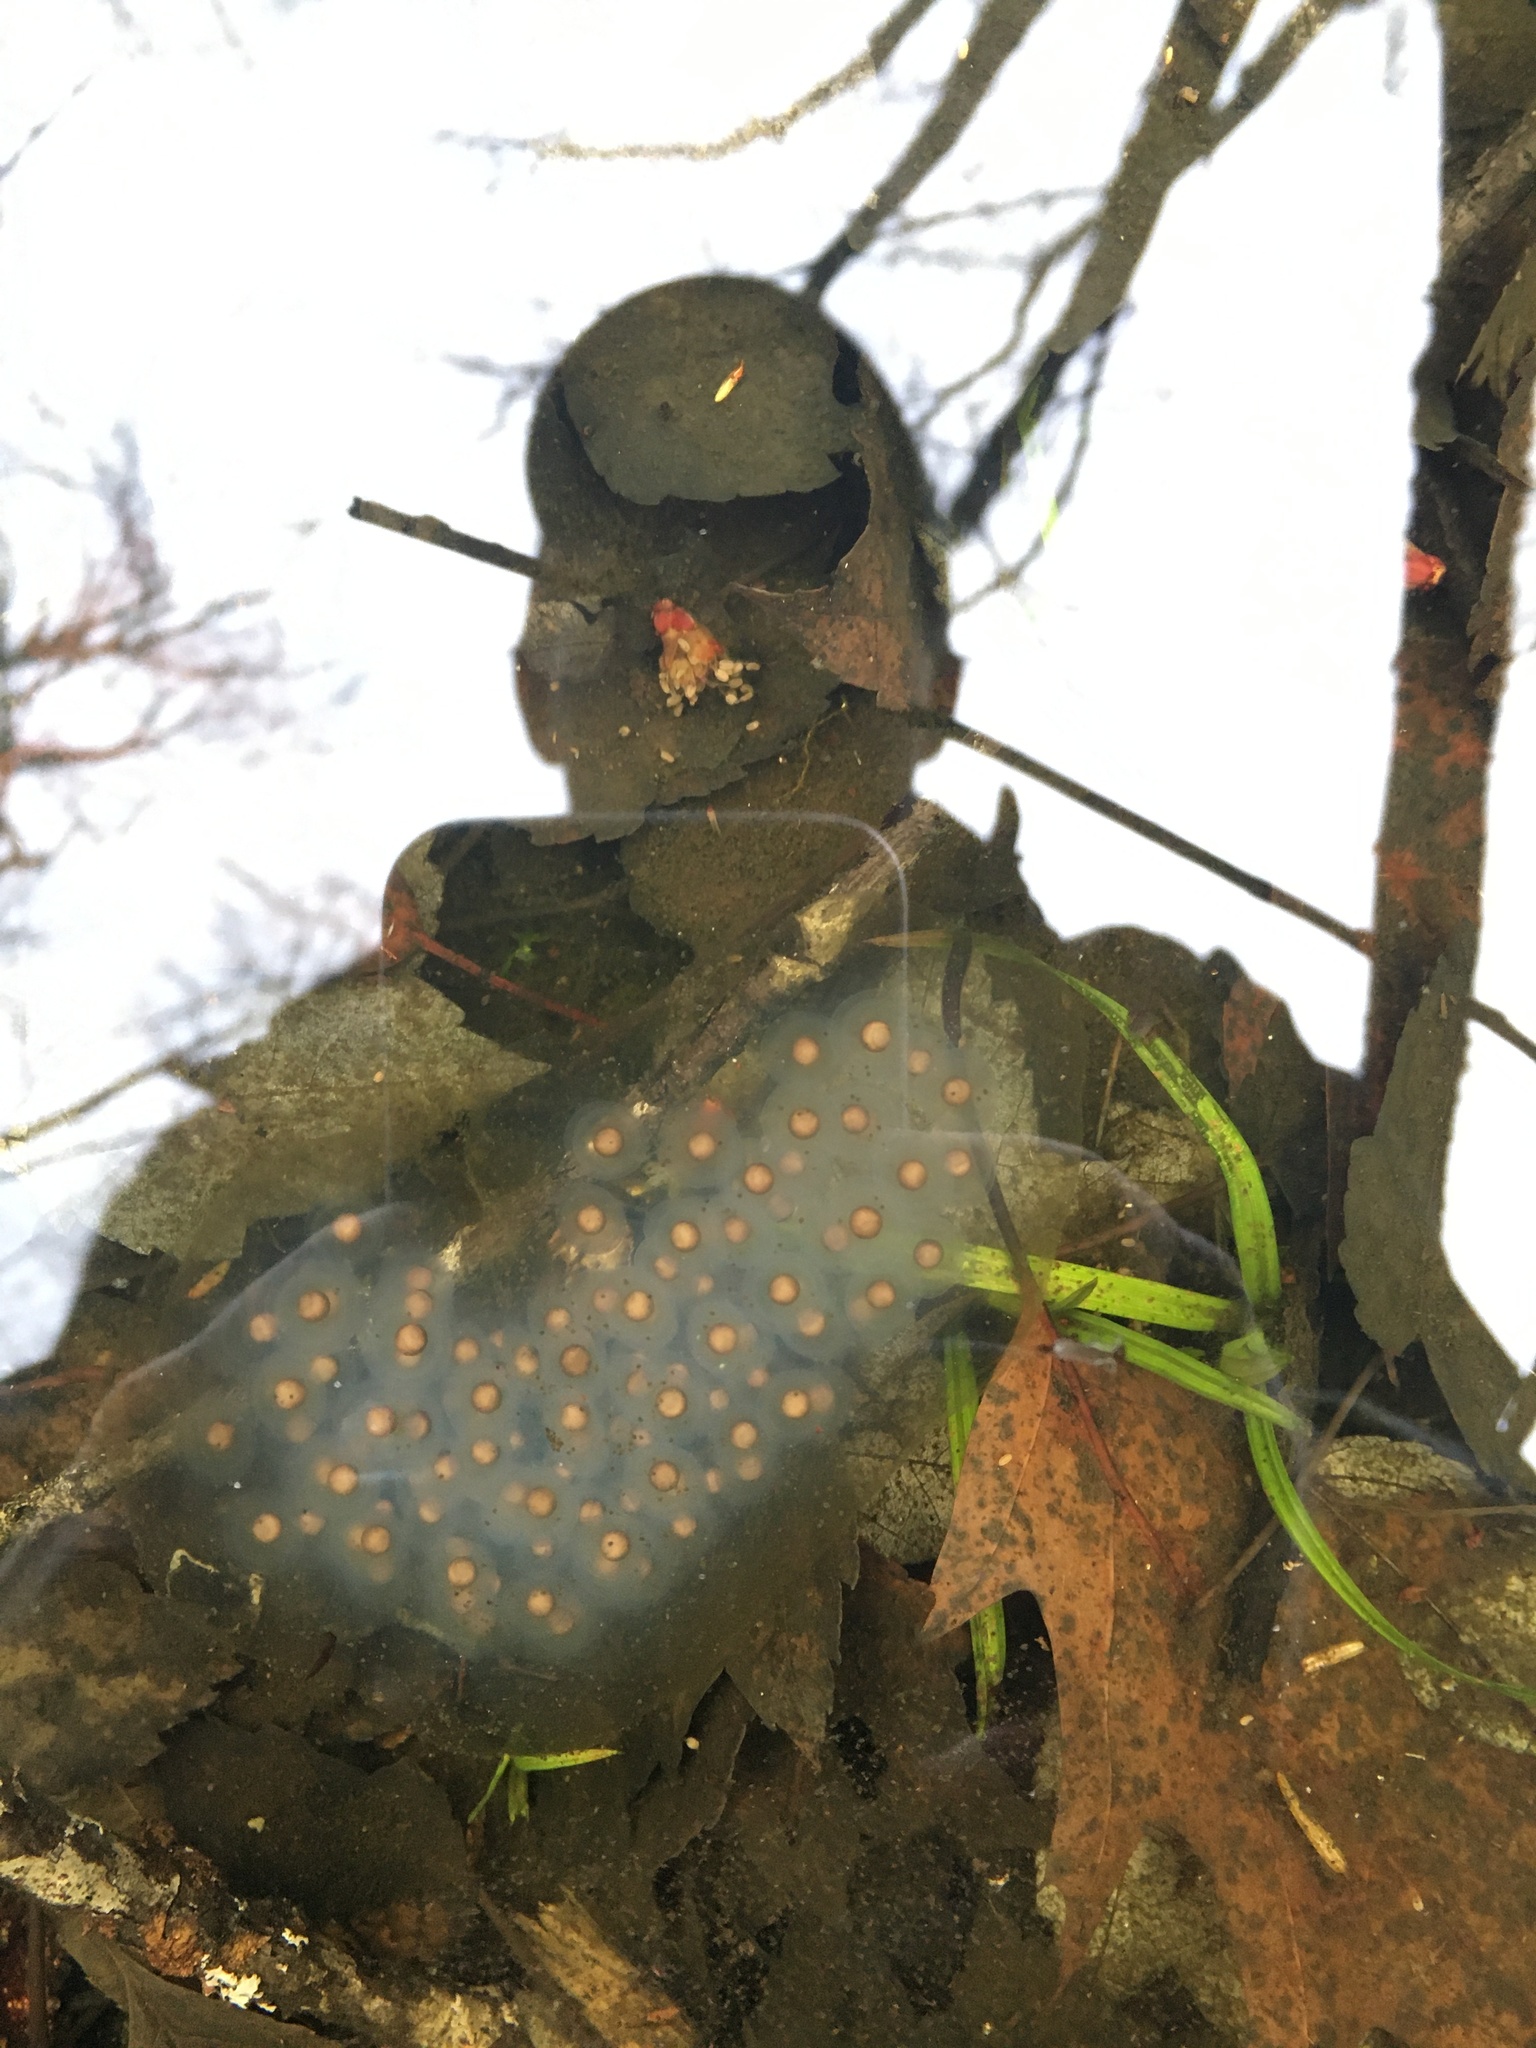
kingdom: Animalia
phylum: Chordata
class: Amphibia
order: Caudata
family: Ambystomatidae
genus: Ambystoma
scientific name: Ambystoma maculatum
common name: Spotted salamander
